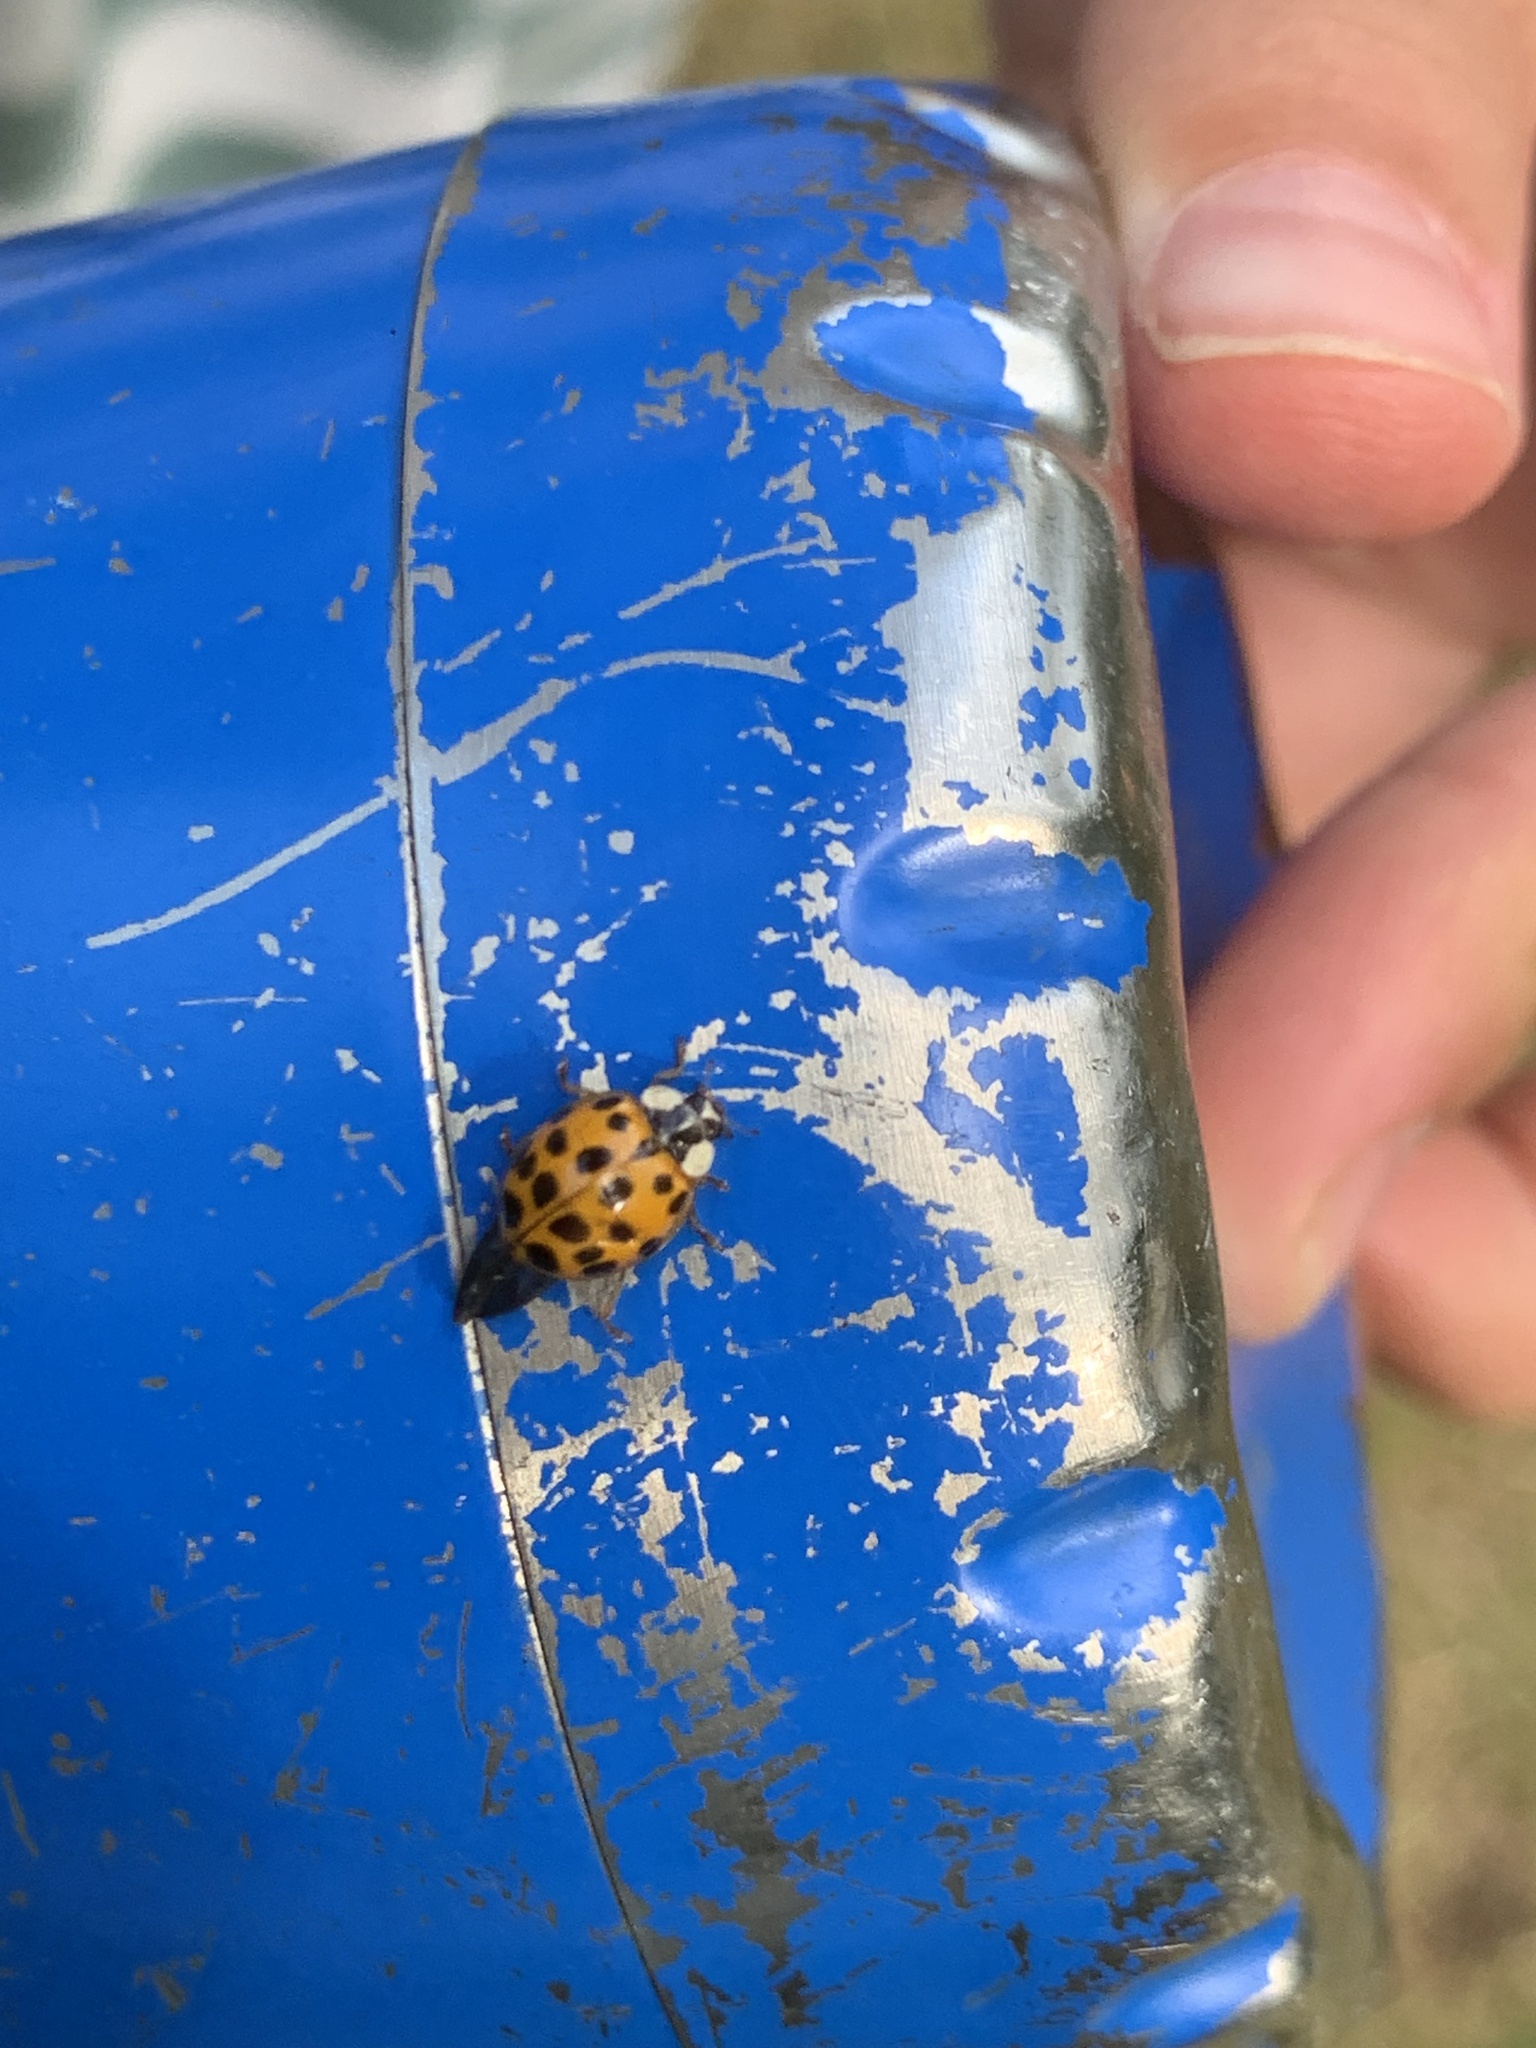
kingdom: Animalia
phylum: Arthropoda
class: Insecta
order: Coleoptera
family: Coccinellidae
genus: Harmonia
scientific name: Harmonia axyridis
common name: Harlequin ladybird
